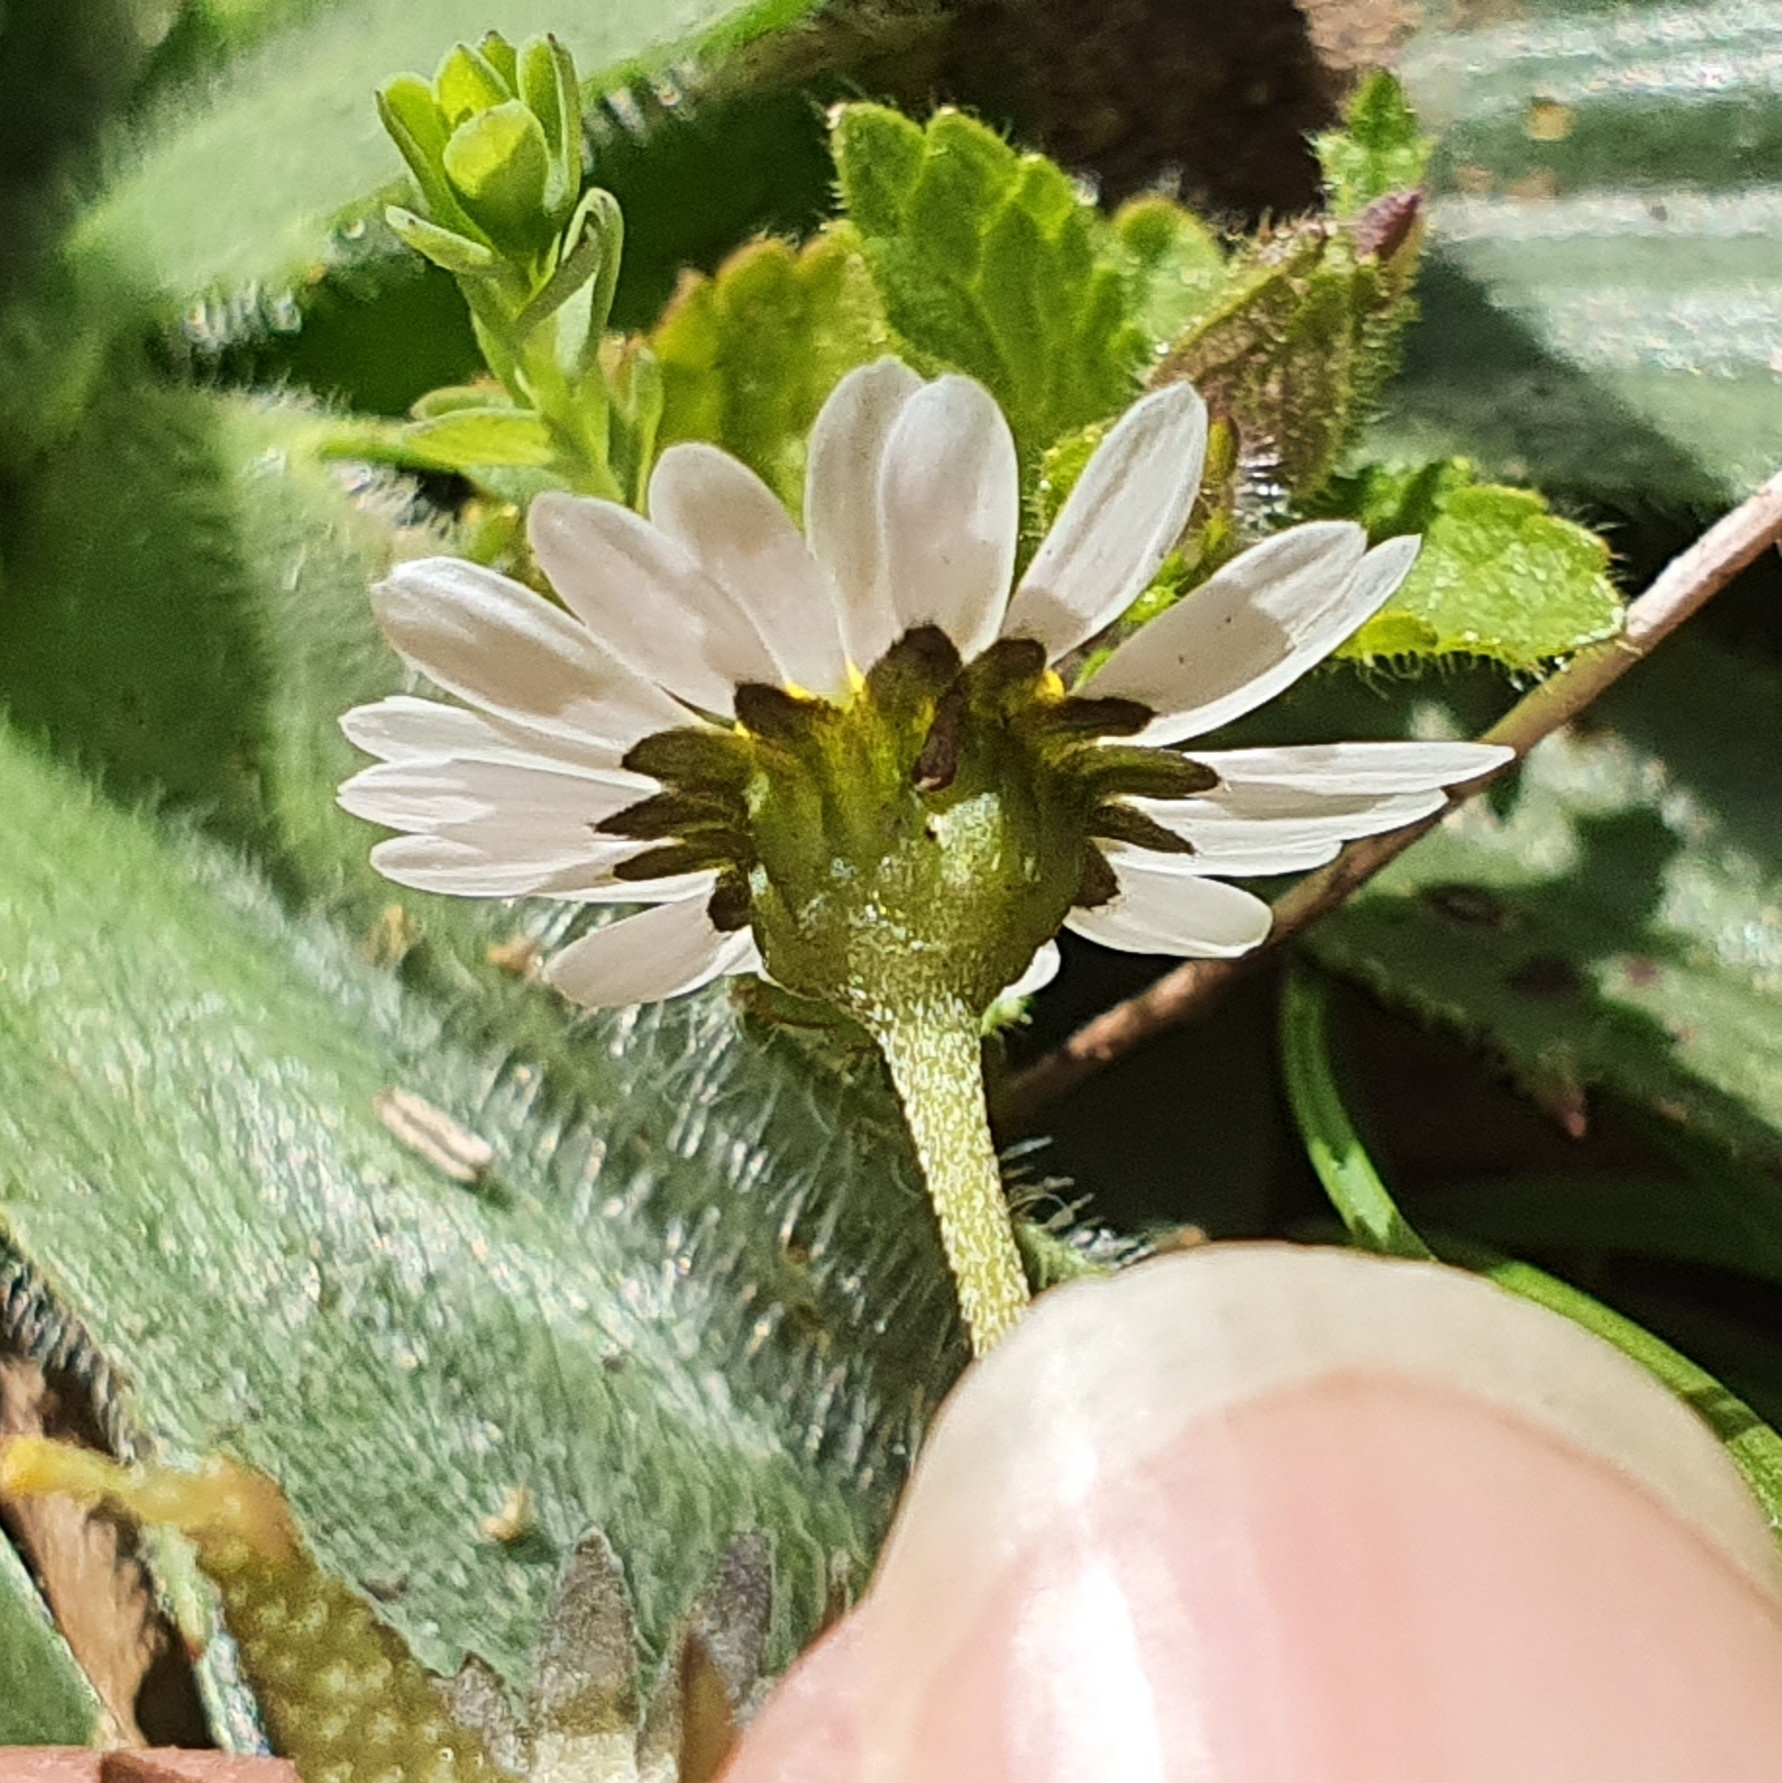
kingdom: Plantae
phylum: Tracheophyta
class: Magnoliopsida
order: Asterales
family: Asteraceae
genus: Bellis
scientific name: Bellis annua
